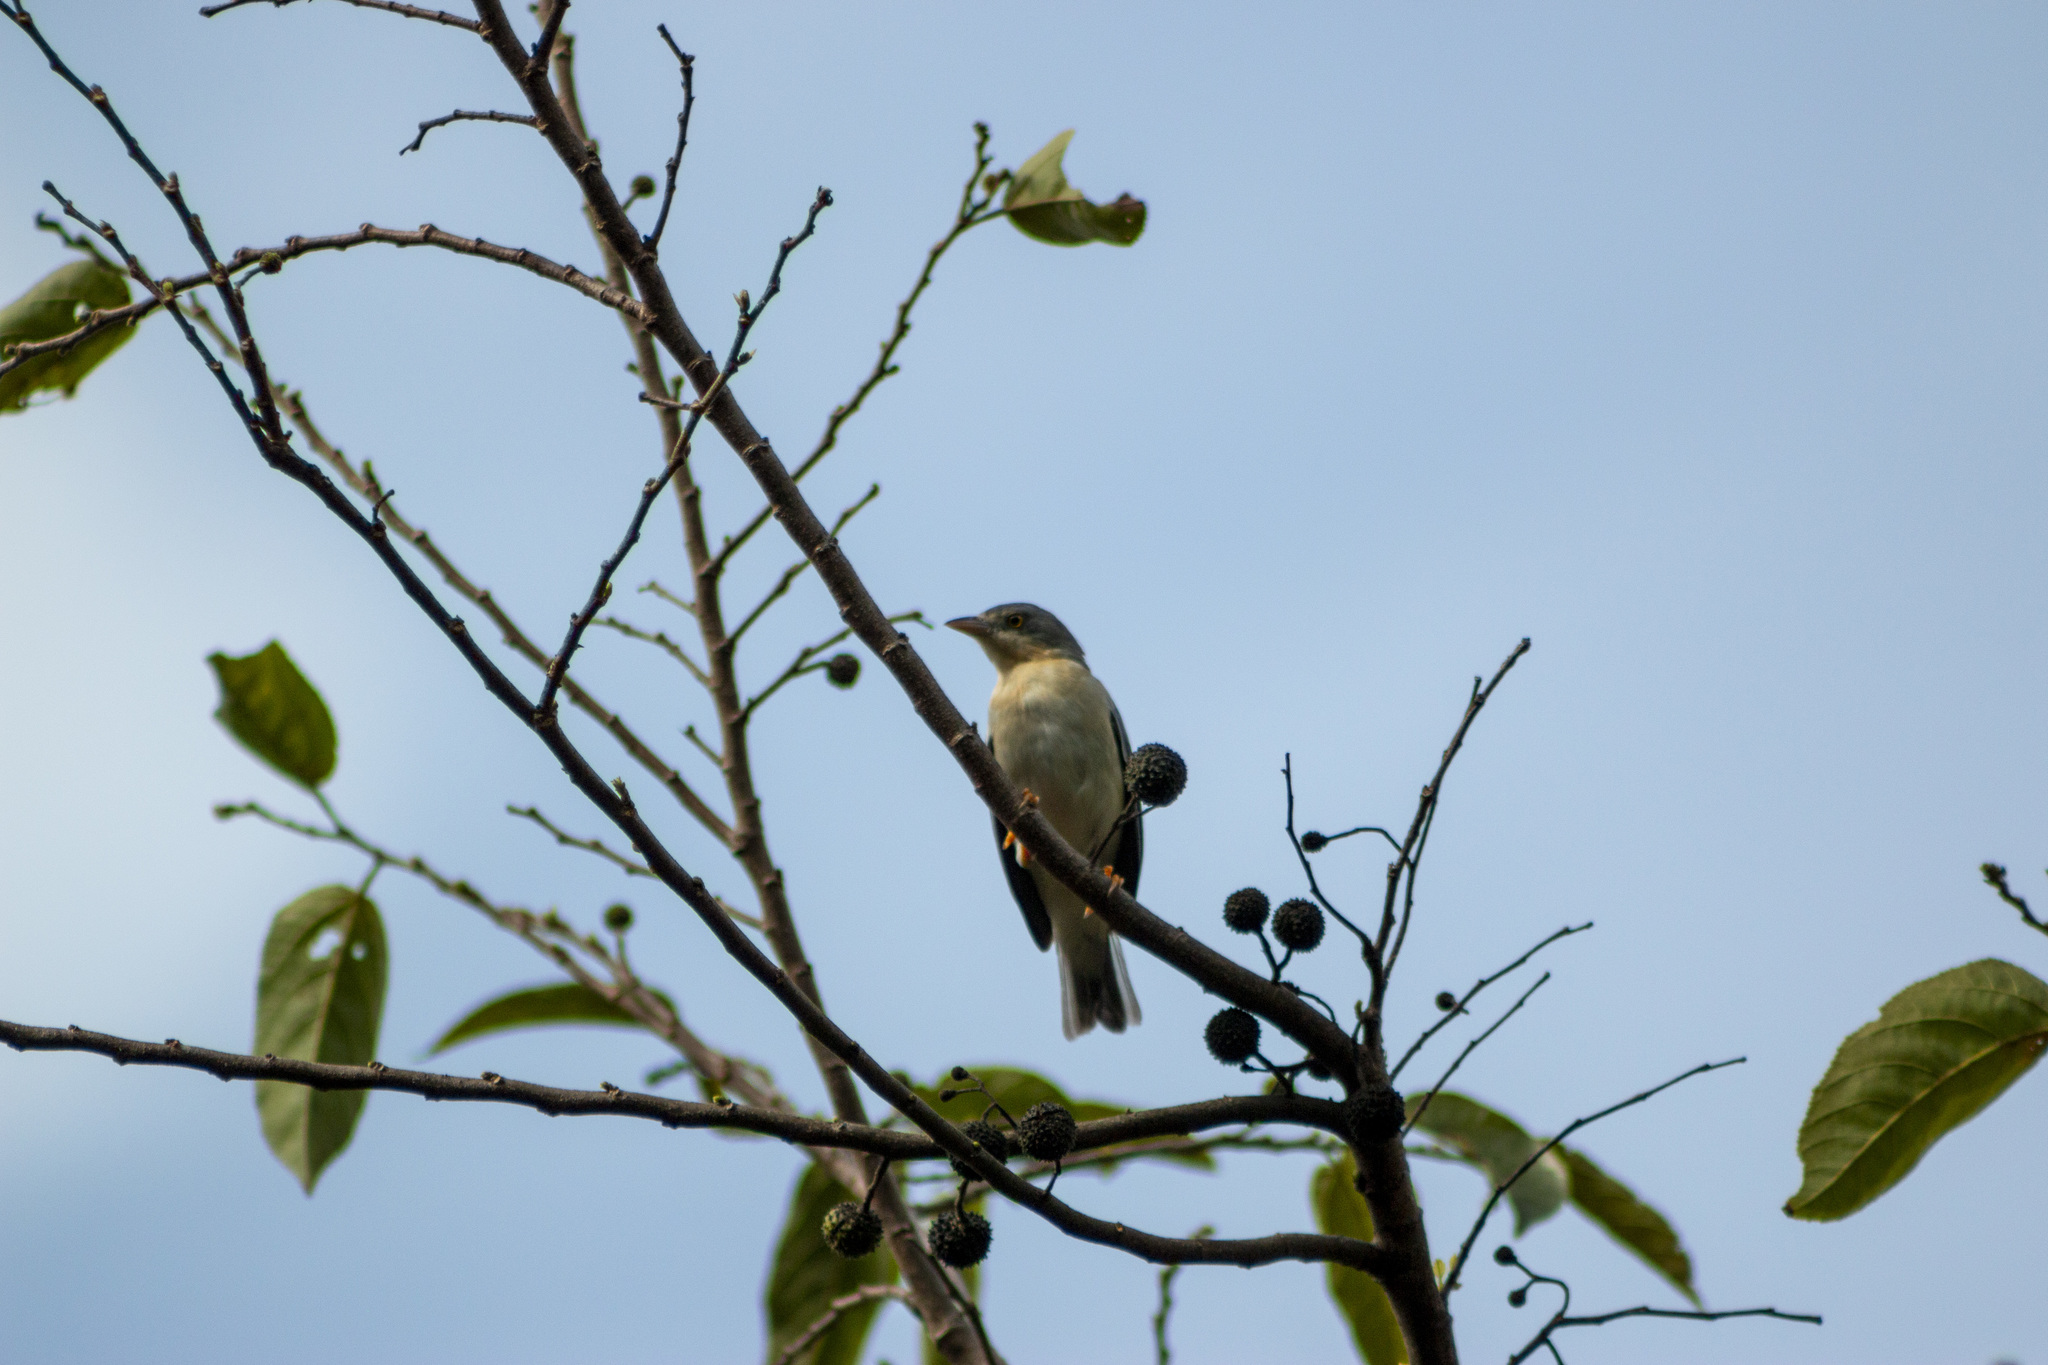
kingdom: Animalia
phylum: Chordata
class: Aves
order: Passeriformes
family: Thraupidae
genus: Nemosia
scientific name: Nemosia pileata
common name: Hooded tanager
